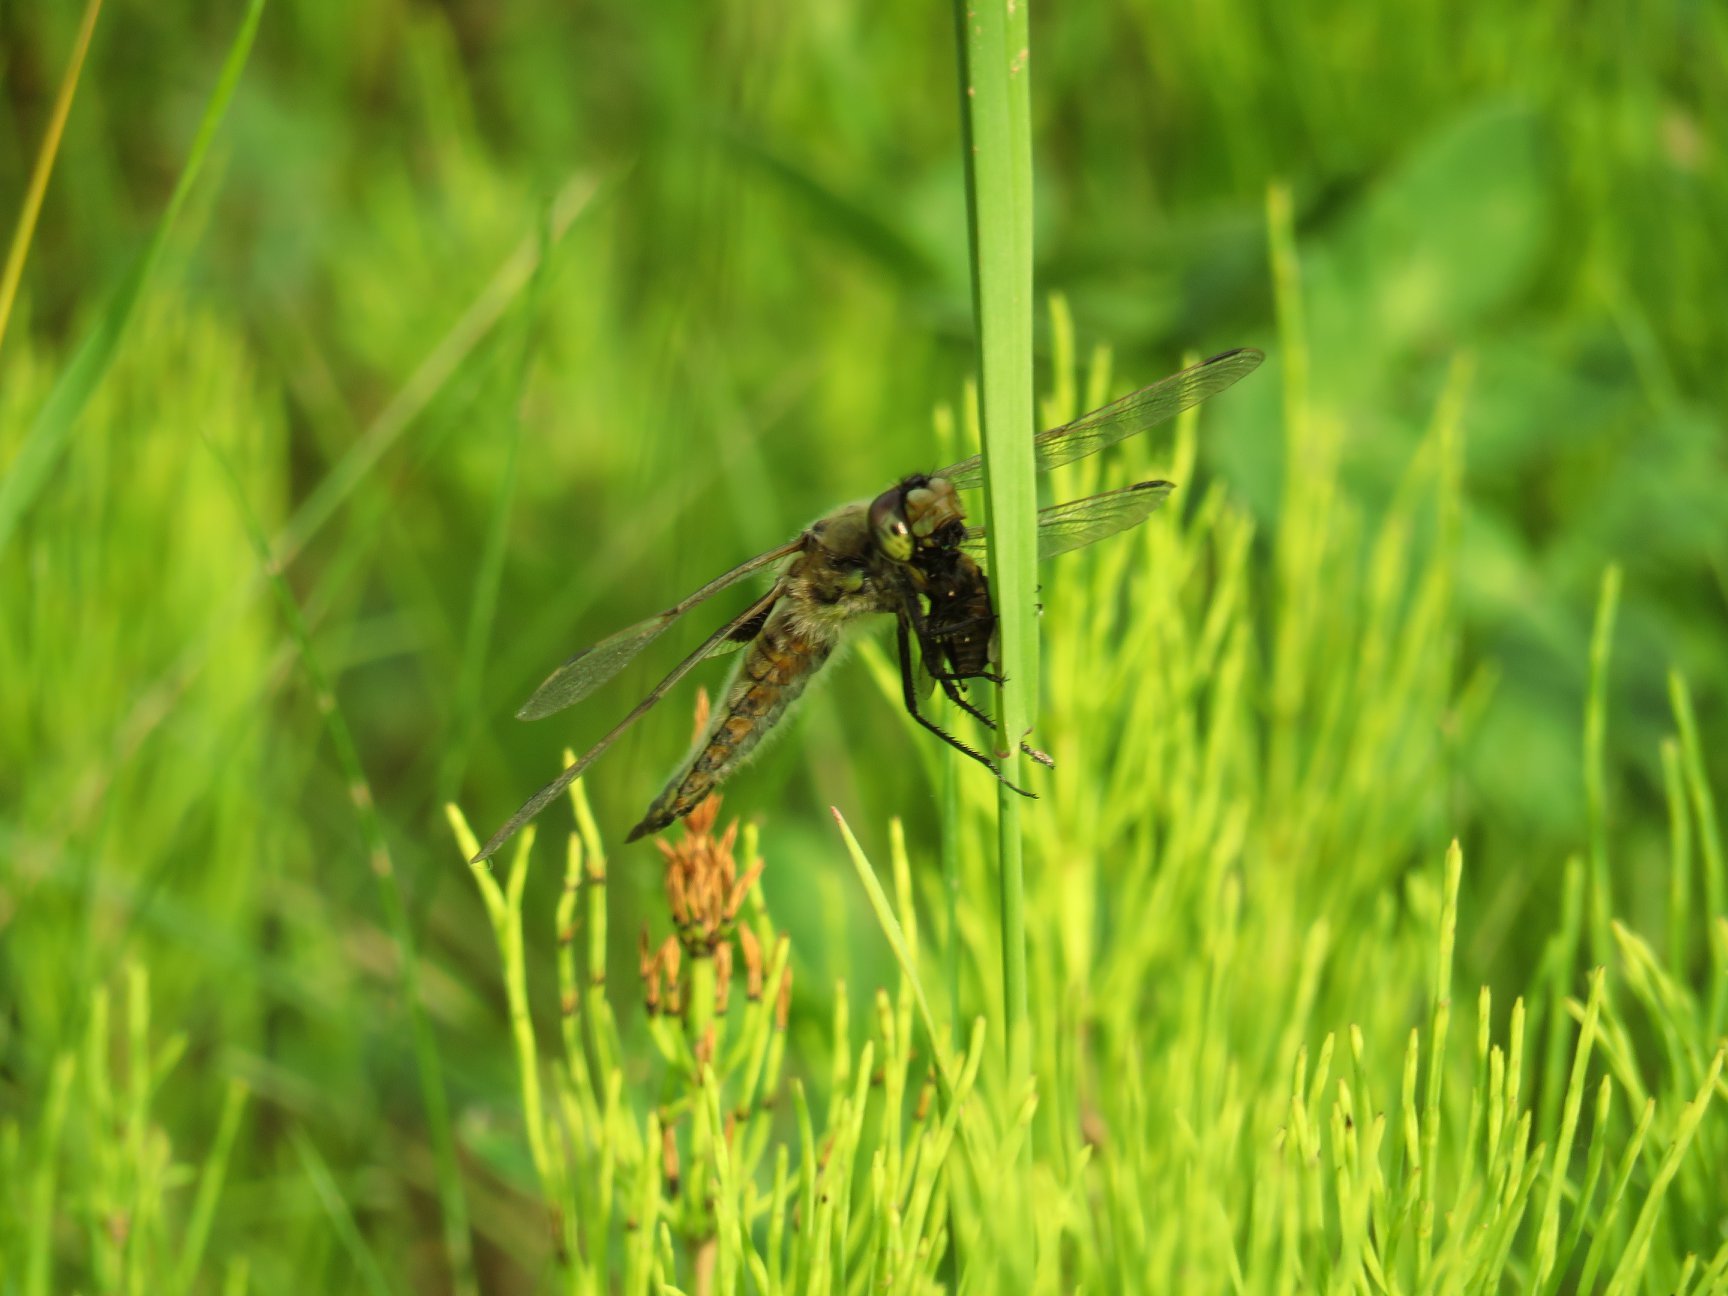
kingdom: Animalia
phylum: Arthropoda
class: Insecta
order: Odonata
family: Libellulidae
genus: Libellula
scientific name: Libellula quadrimaculata
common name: Four-spotted chaser
